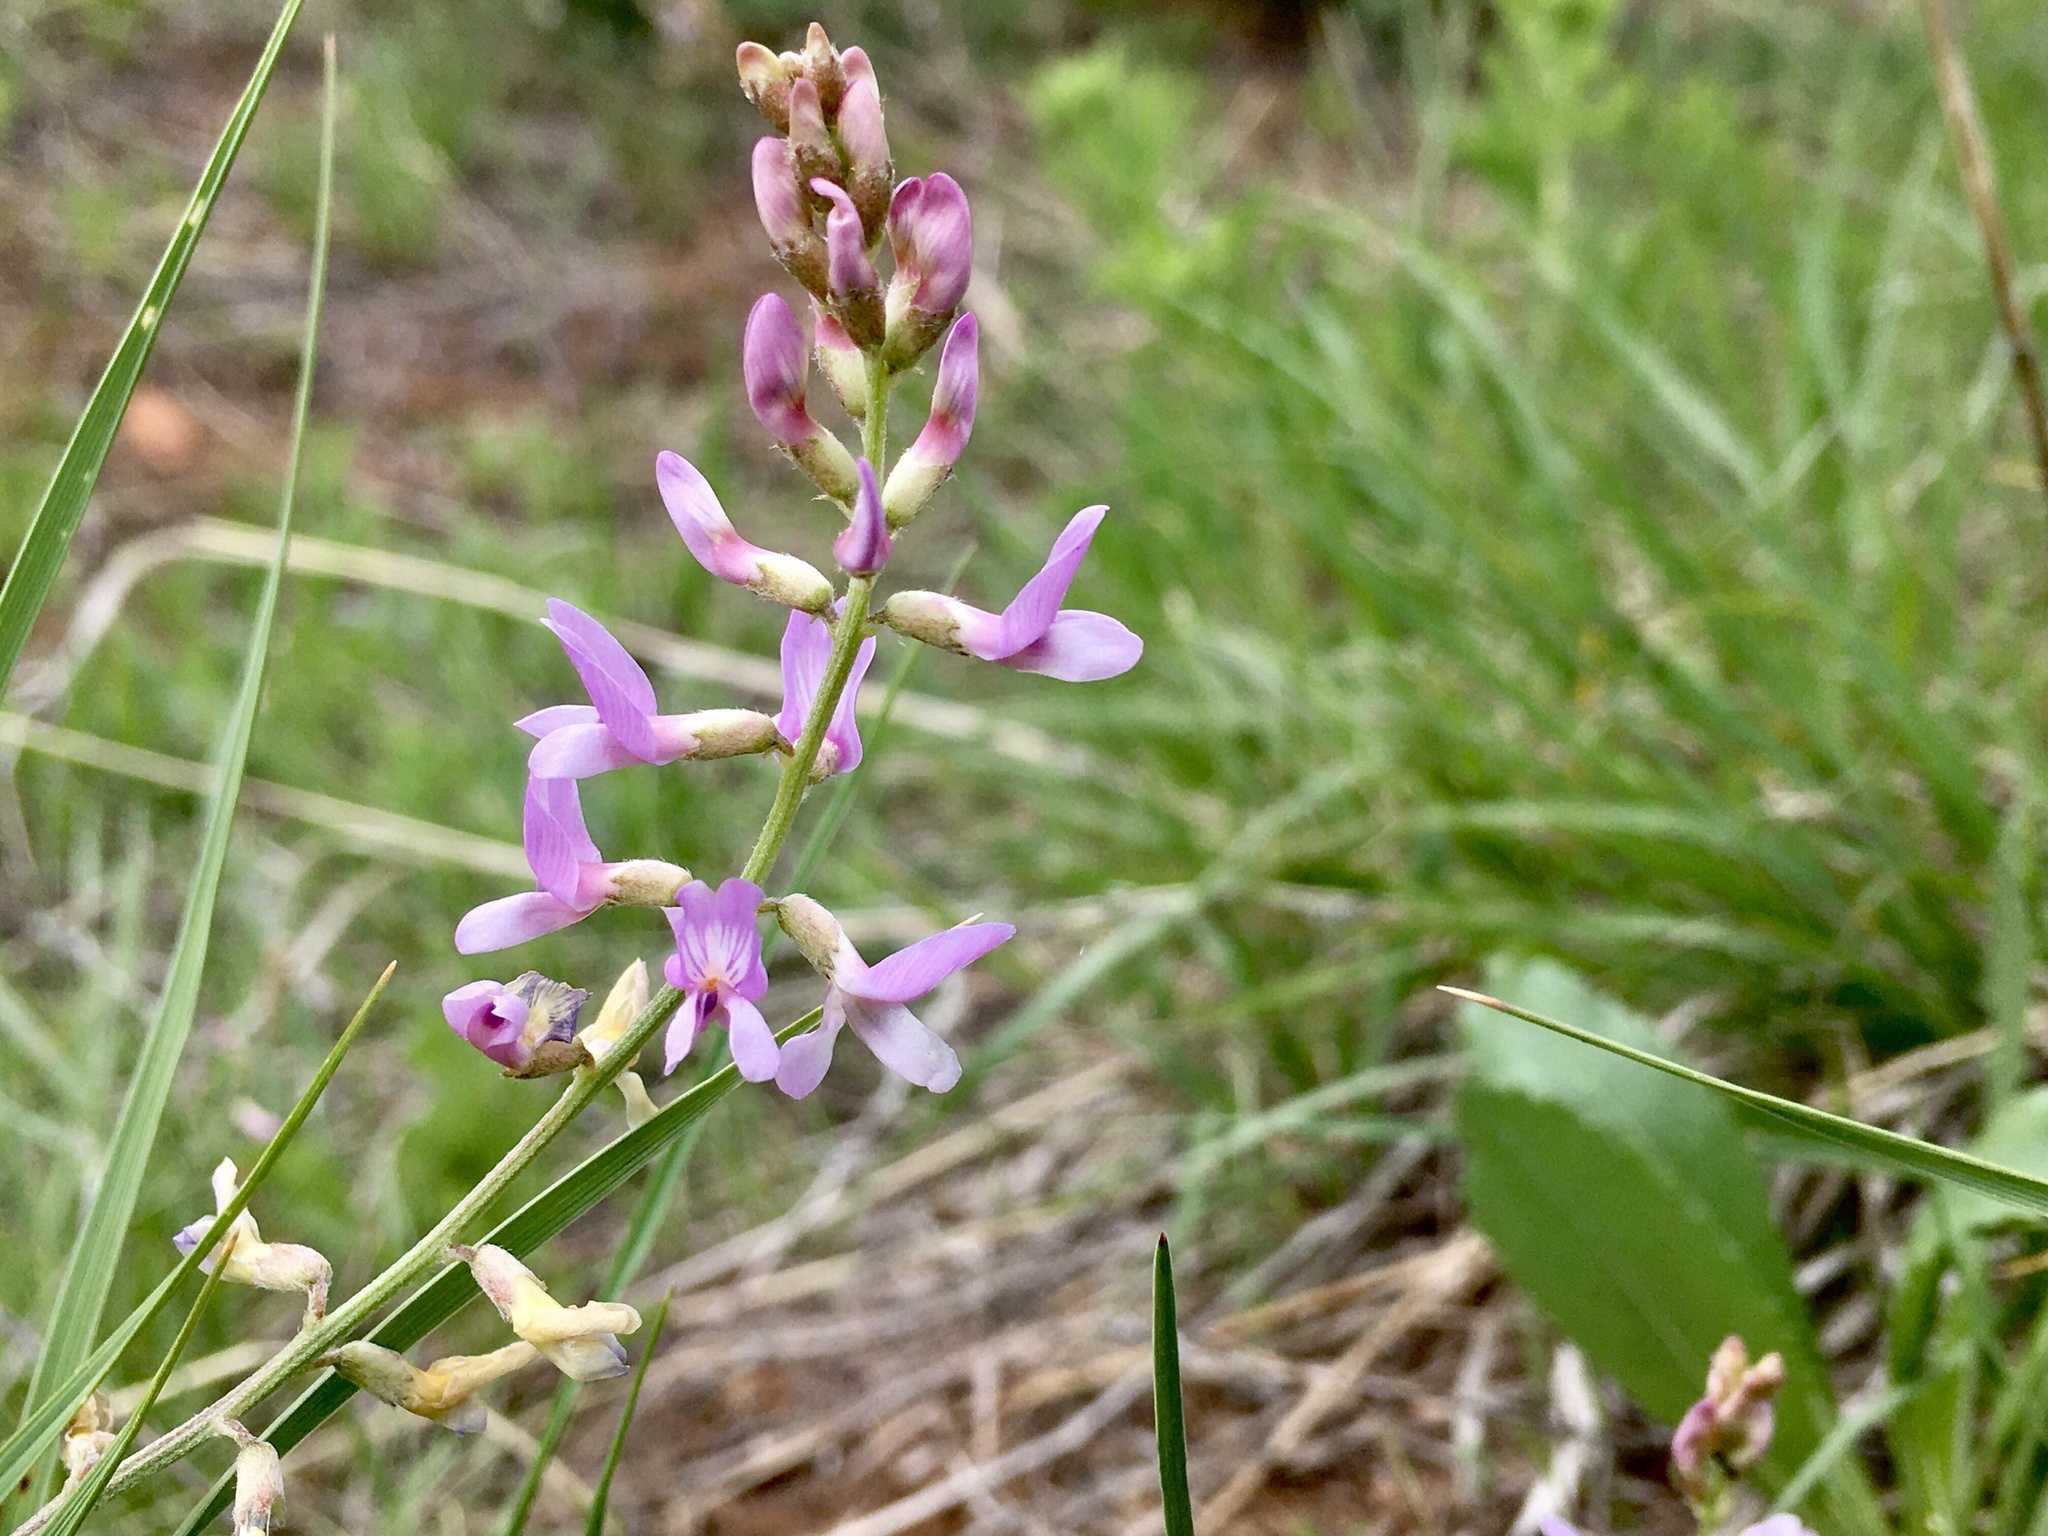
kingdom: Plantae
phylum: Tracheophyta
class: Magnoliopsida
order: Fabales
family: Fabaceae
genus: Astragalus
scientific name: Astragalus flexuosus
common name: Pliant milk-vetch
